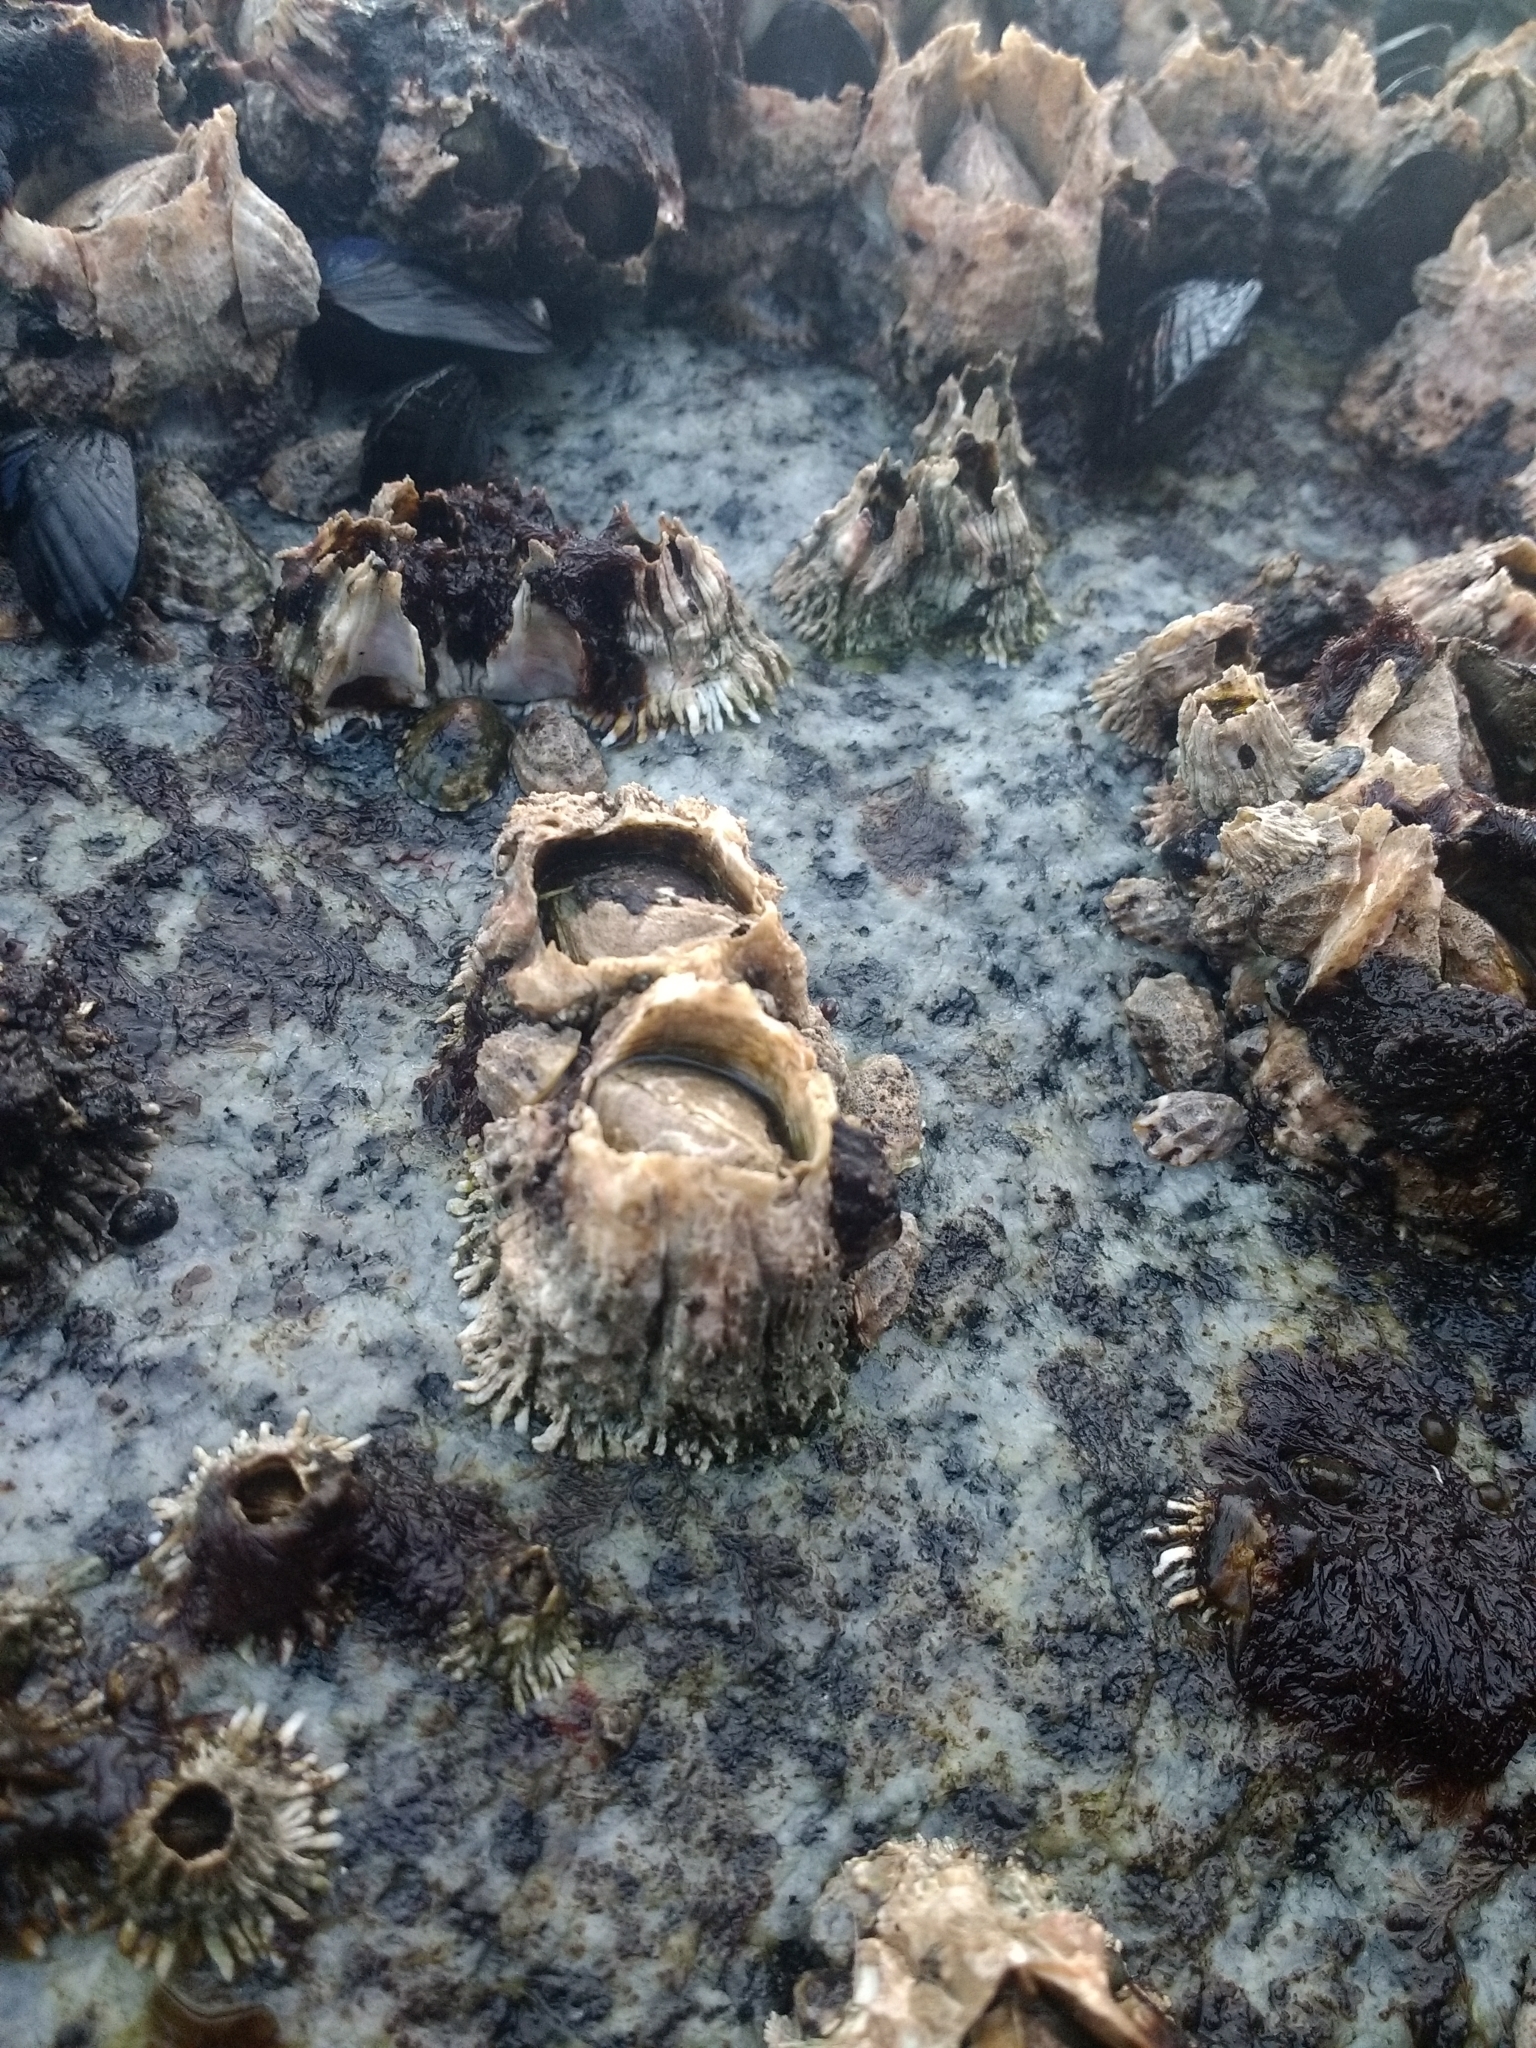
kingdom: Animalia
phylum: Arthropoda
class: Maxillopoda
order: Sessilia
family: Archaeobalanidae
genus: Semibalanus
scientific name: Semibalanus cariosus
